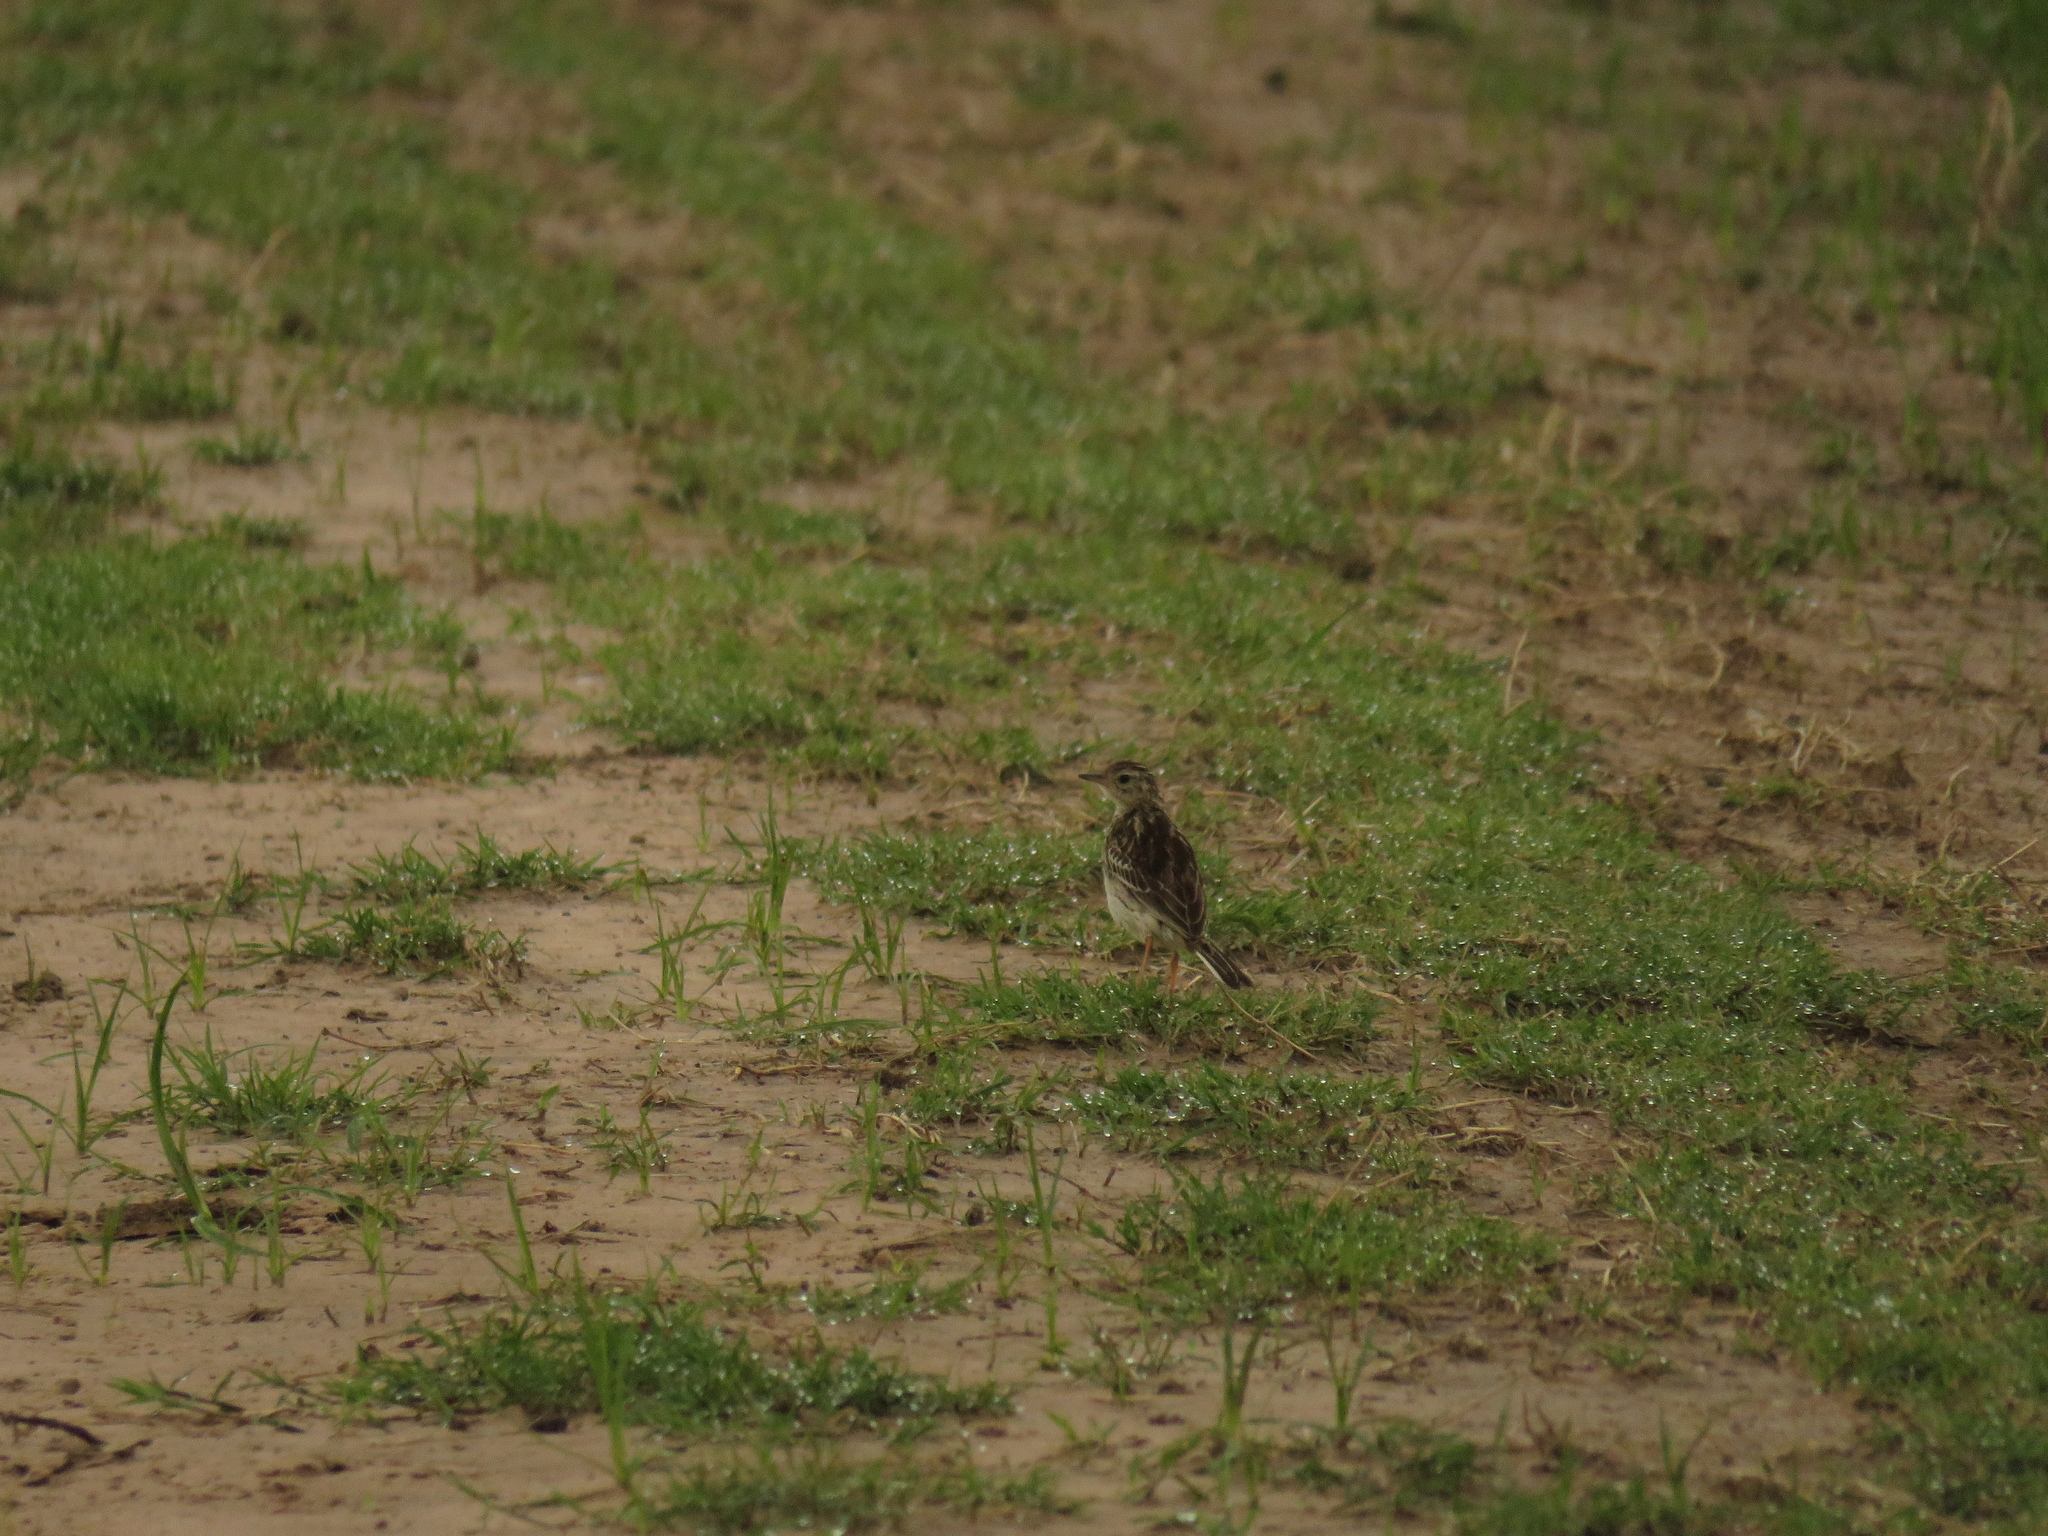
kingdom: Animalia
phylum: Chordata
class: Aves
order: Passeriformes
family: Motacillidae
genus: Anthus
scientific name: Anthus chacoensis
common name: Pampas pipit
